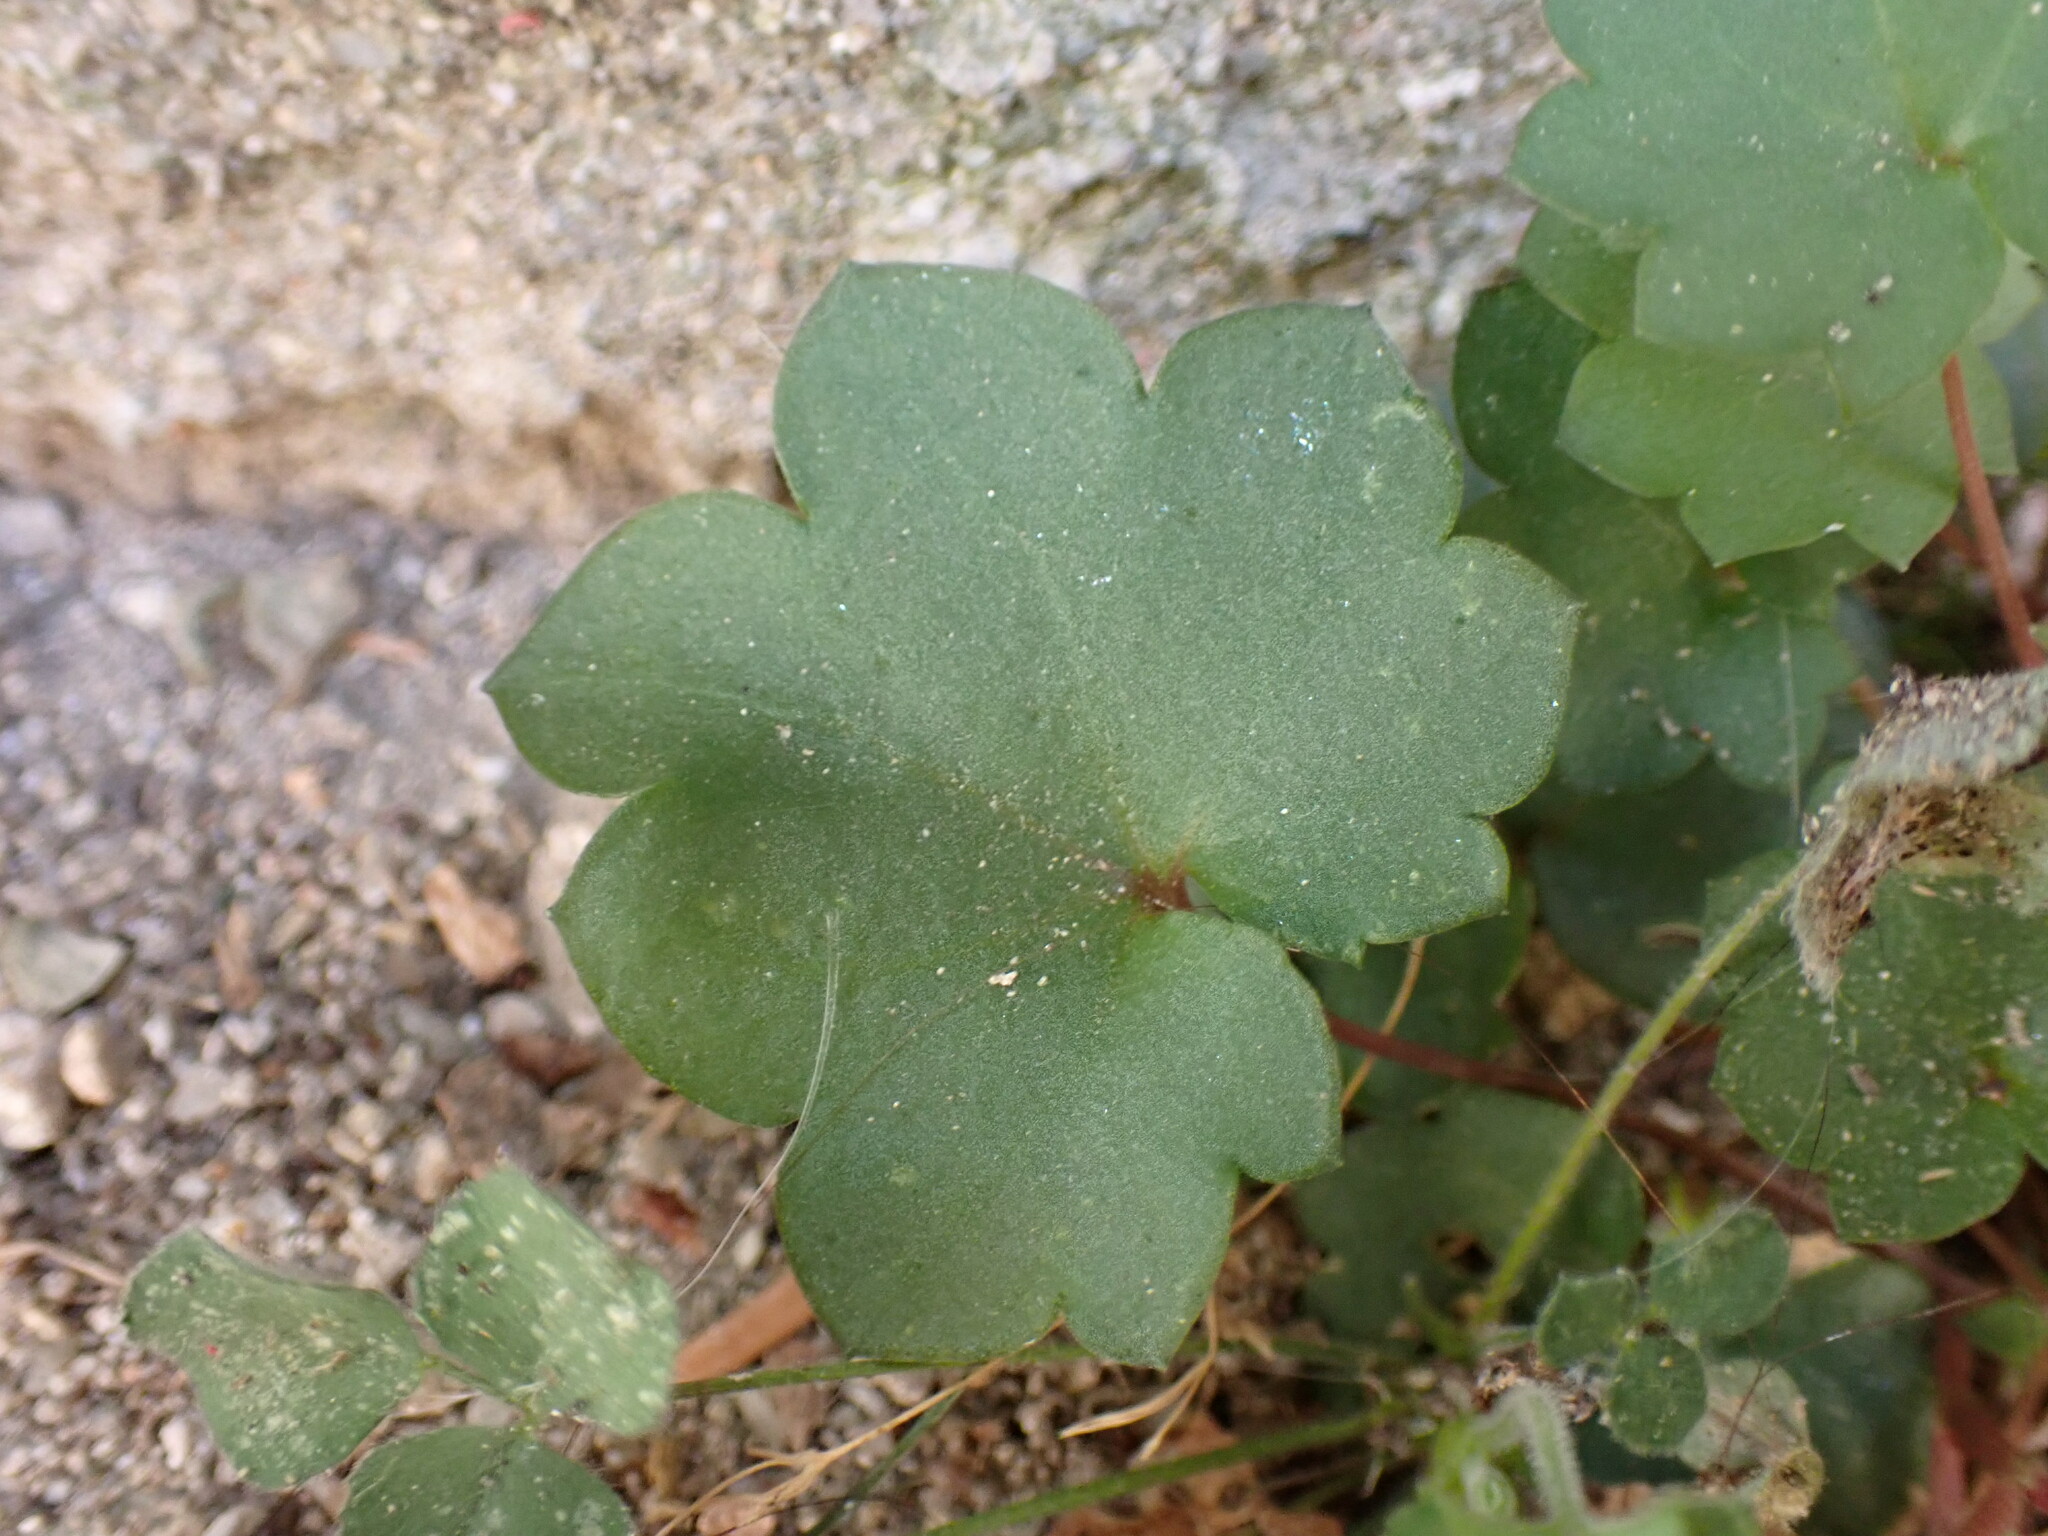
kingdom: Plantae
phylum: Tracheophyta
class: Magnoliopsida
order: Lamiales
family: Plantaginaceae
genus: Cymbalaria
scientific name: Cymbalaria muralis
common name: Ivy-leaved toadflax
